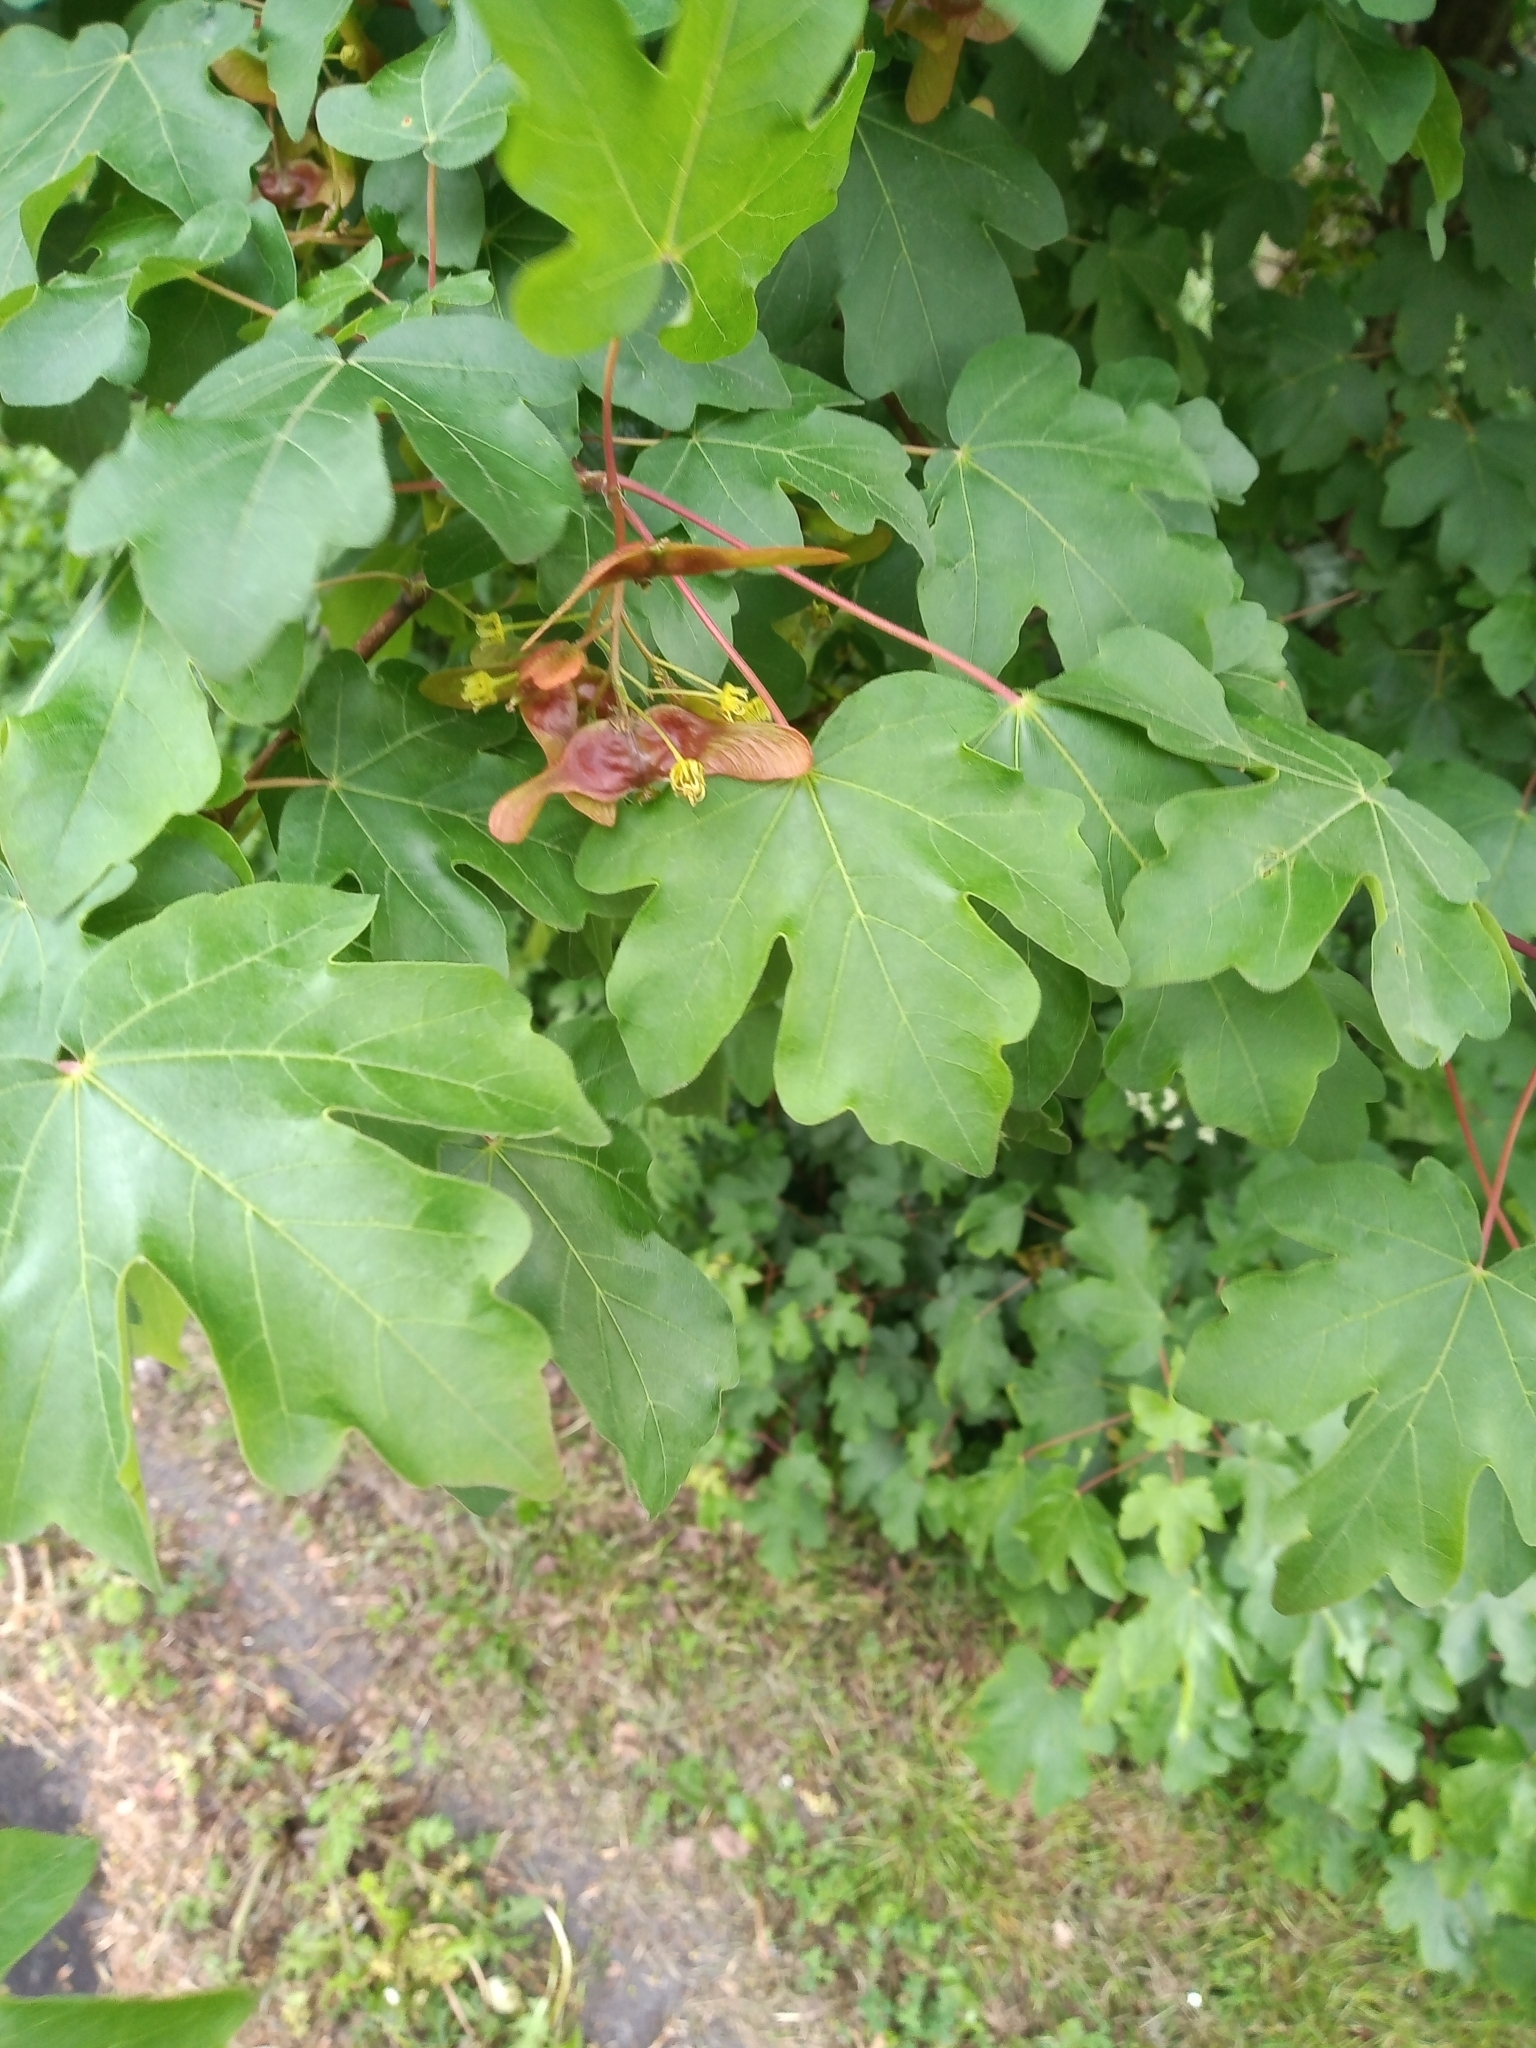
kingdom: Plantae
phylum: Tracheophyta
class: Magnoliopsida
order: Sapindales
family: Sapindaceae
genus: Acer
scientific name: Acer campestre
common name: Field maple
